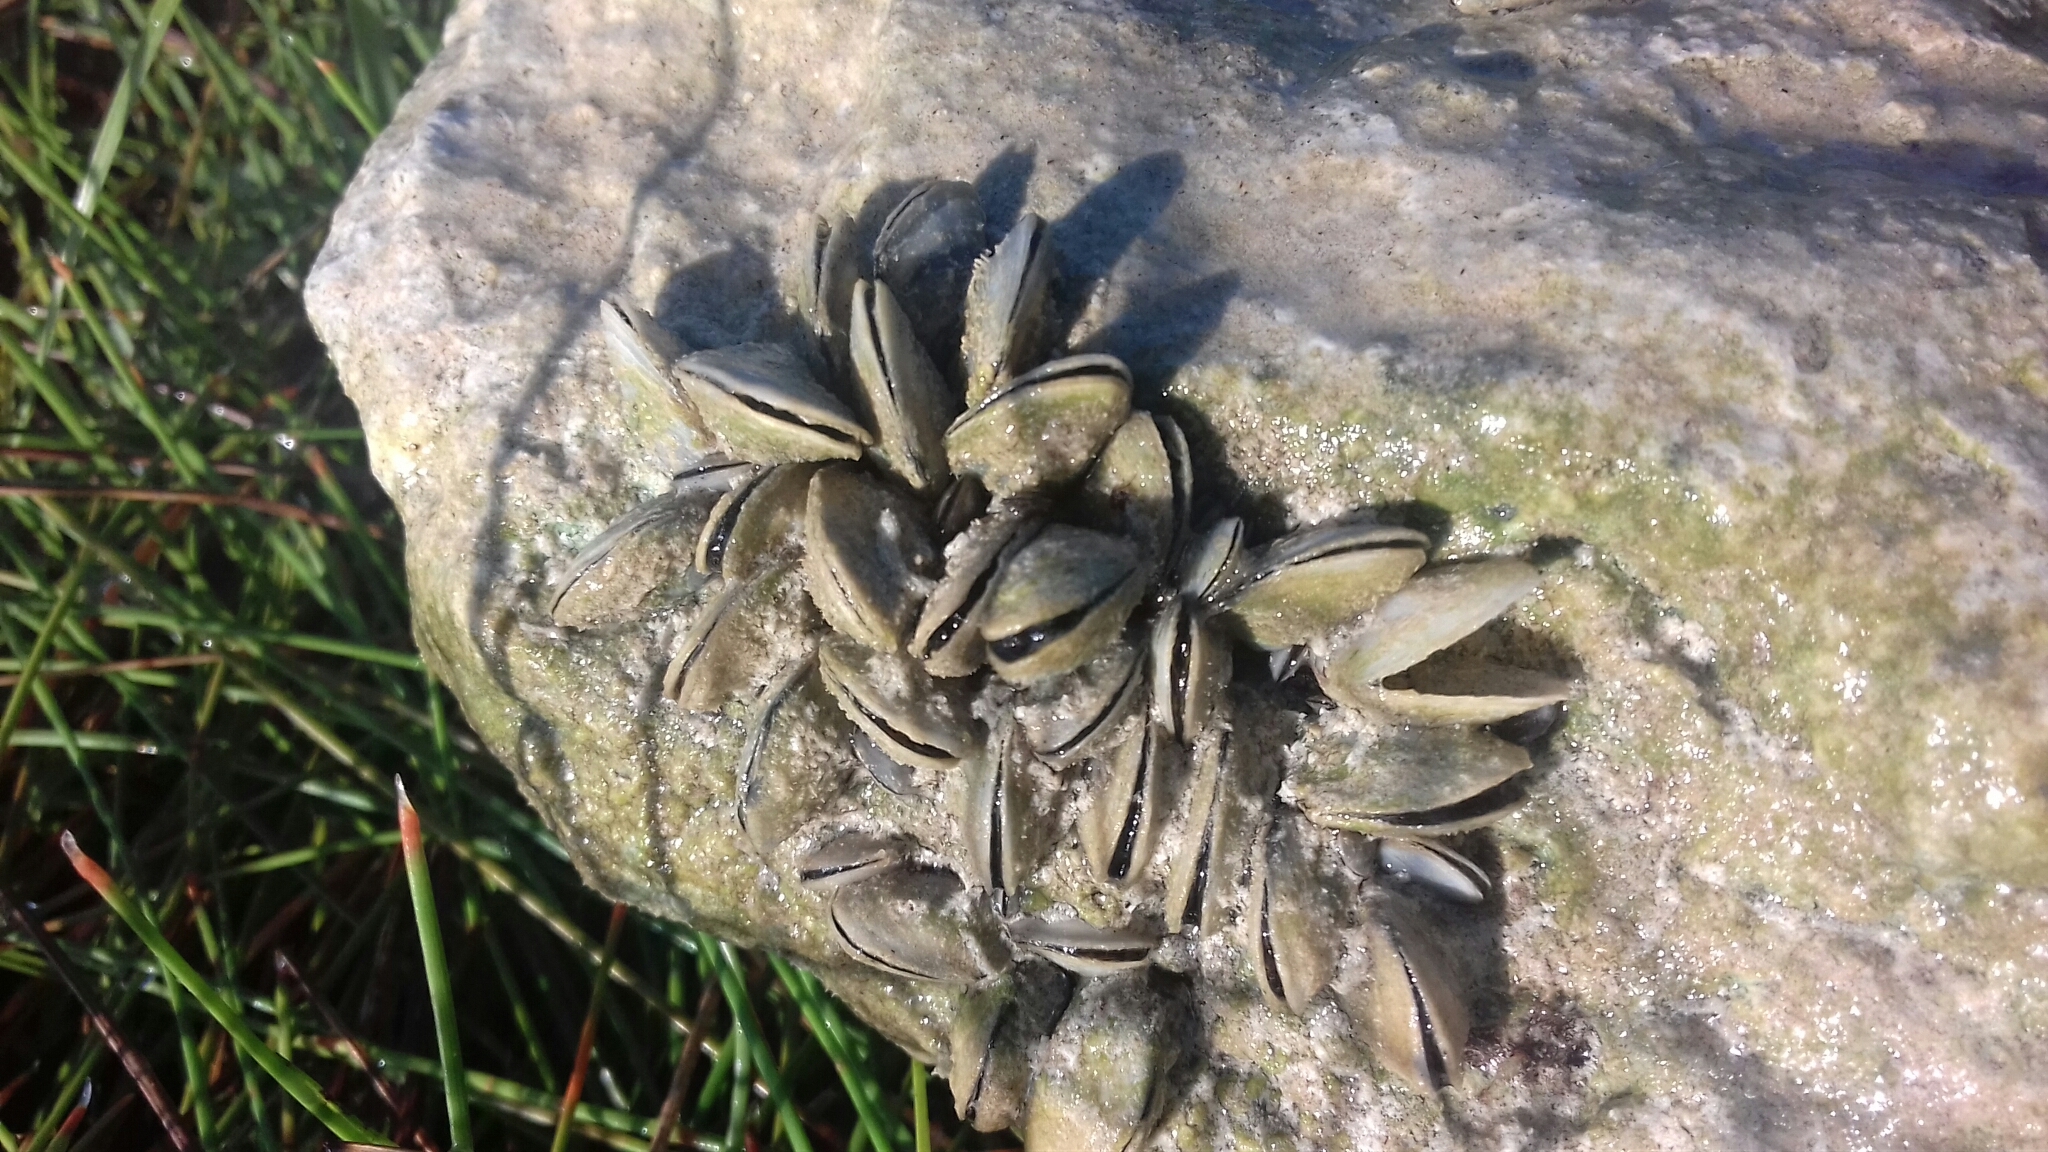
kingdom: Animalia
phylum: Mollusca
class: Bivalvia
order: Myida
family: Dreissenidae
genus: Mytilopsis
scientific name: Mytilopsis sallei
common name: Black-striped mussel
